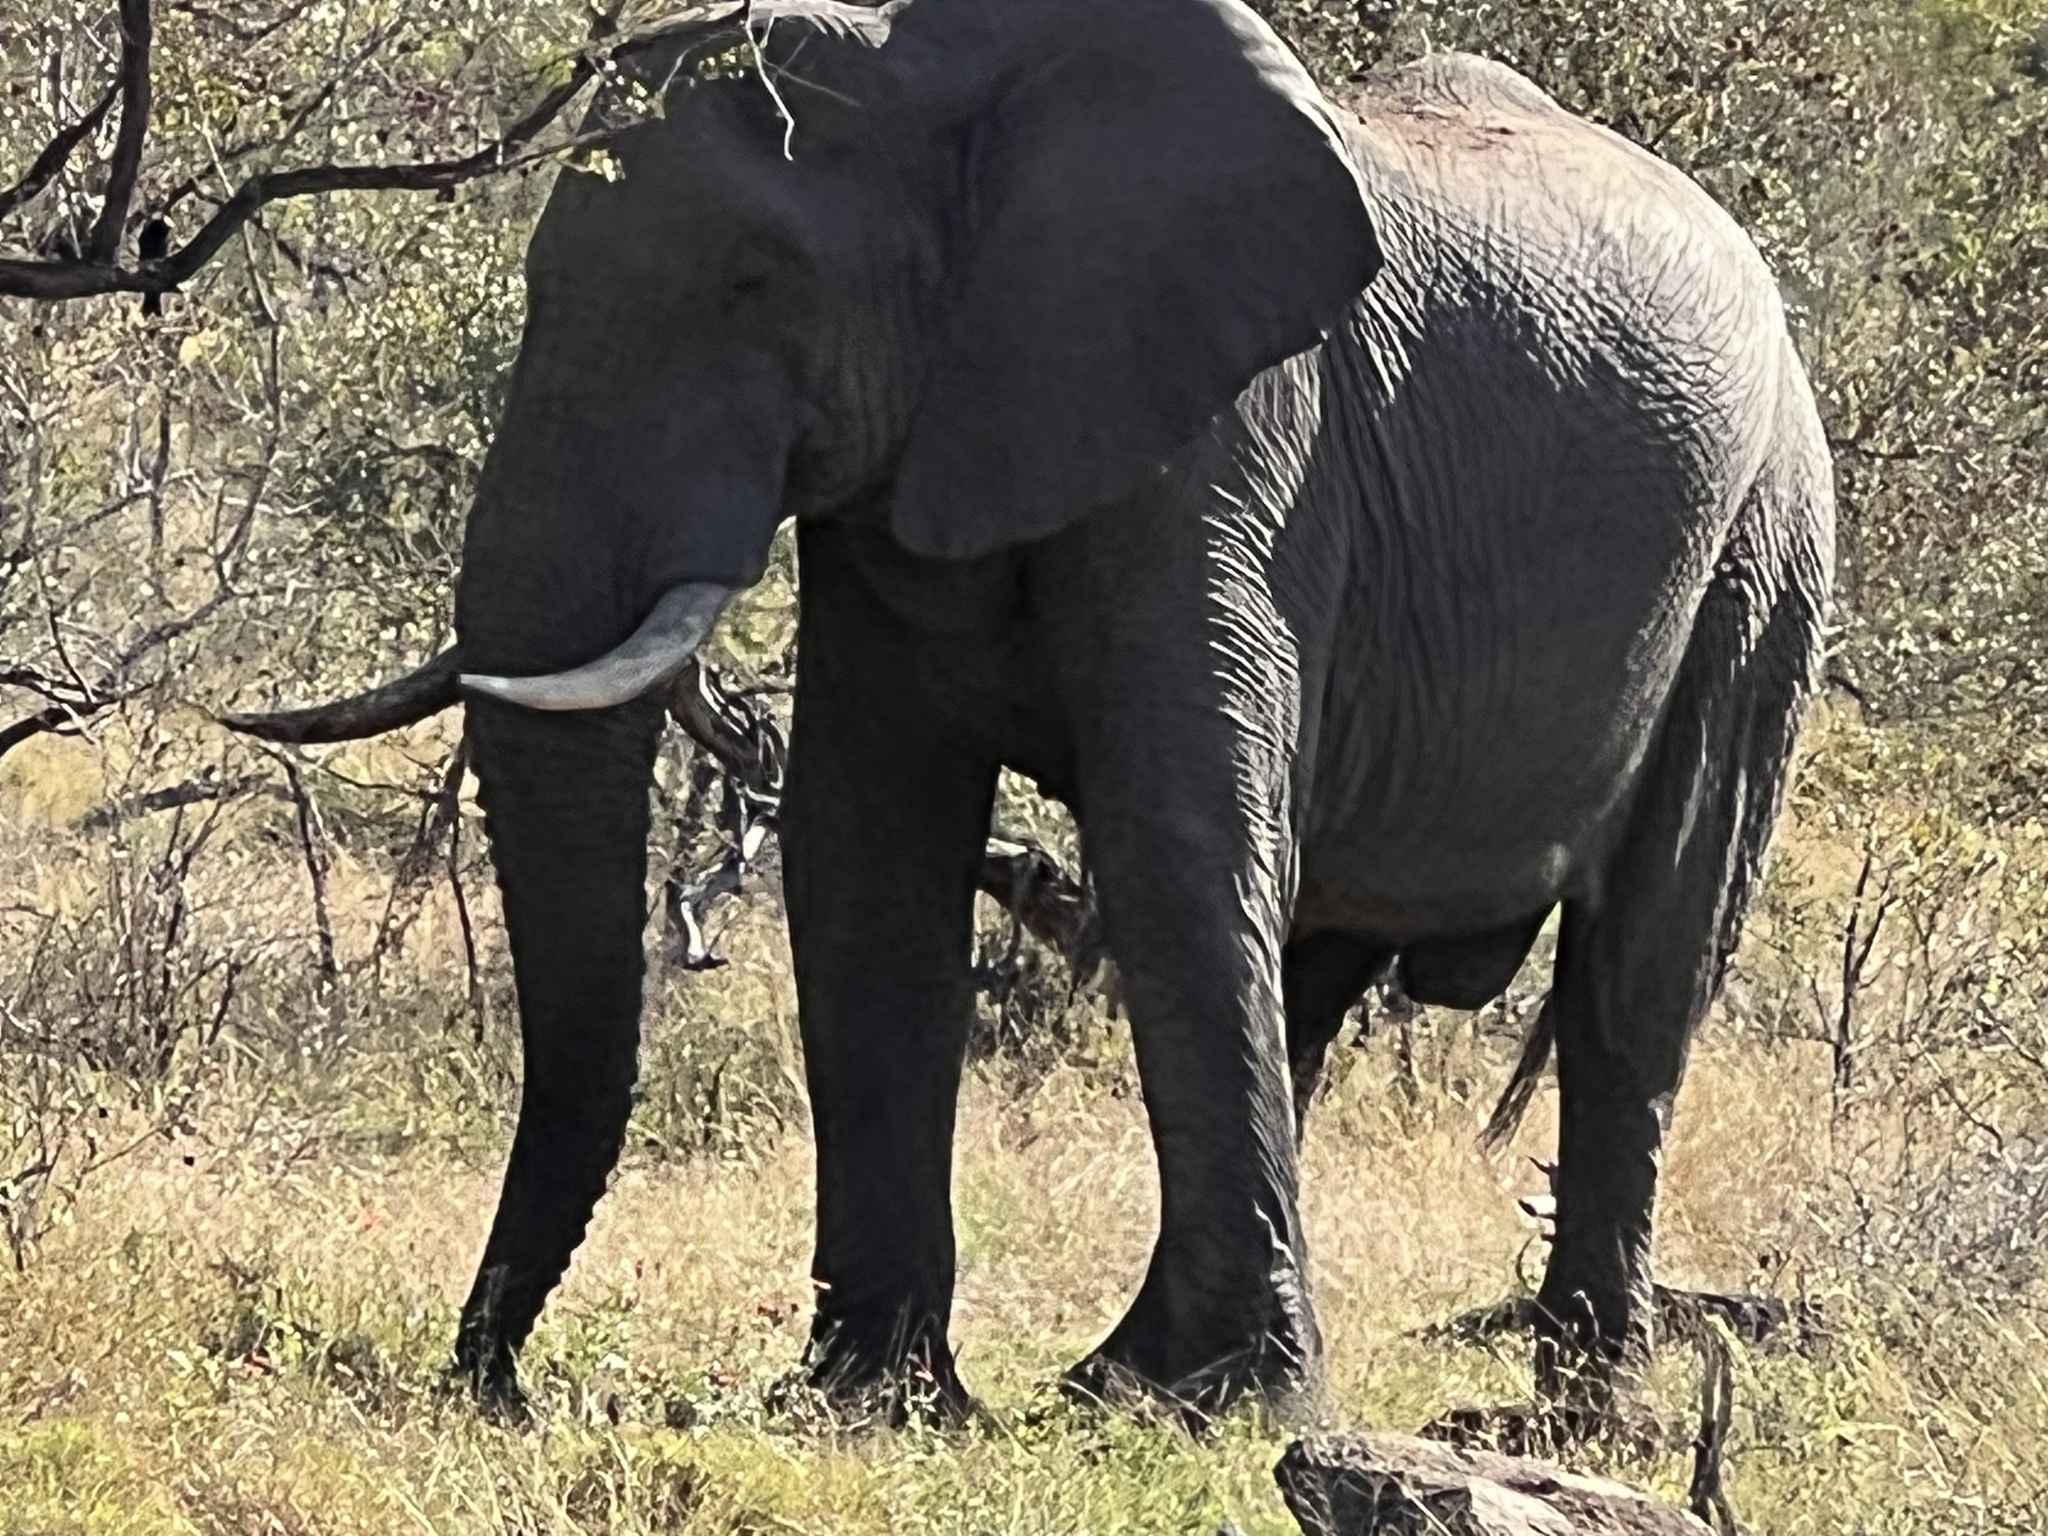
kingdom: Animalia
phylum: Chordata
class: Mammalia
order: Proboscidea
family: Elephantidae
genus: Loxodonta
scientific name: Loxodonta africana
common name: African elephant
